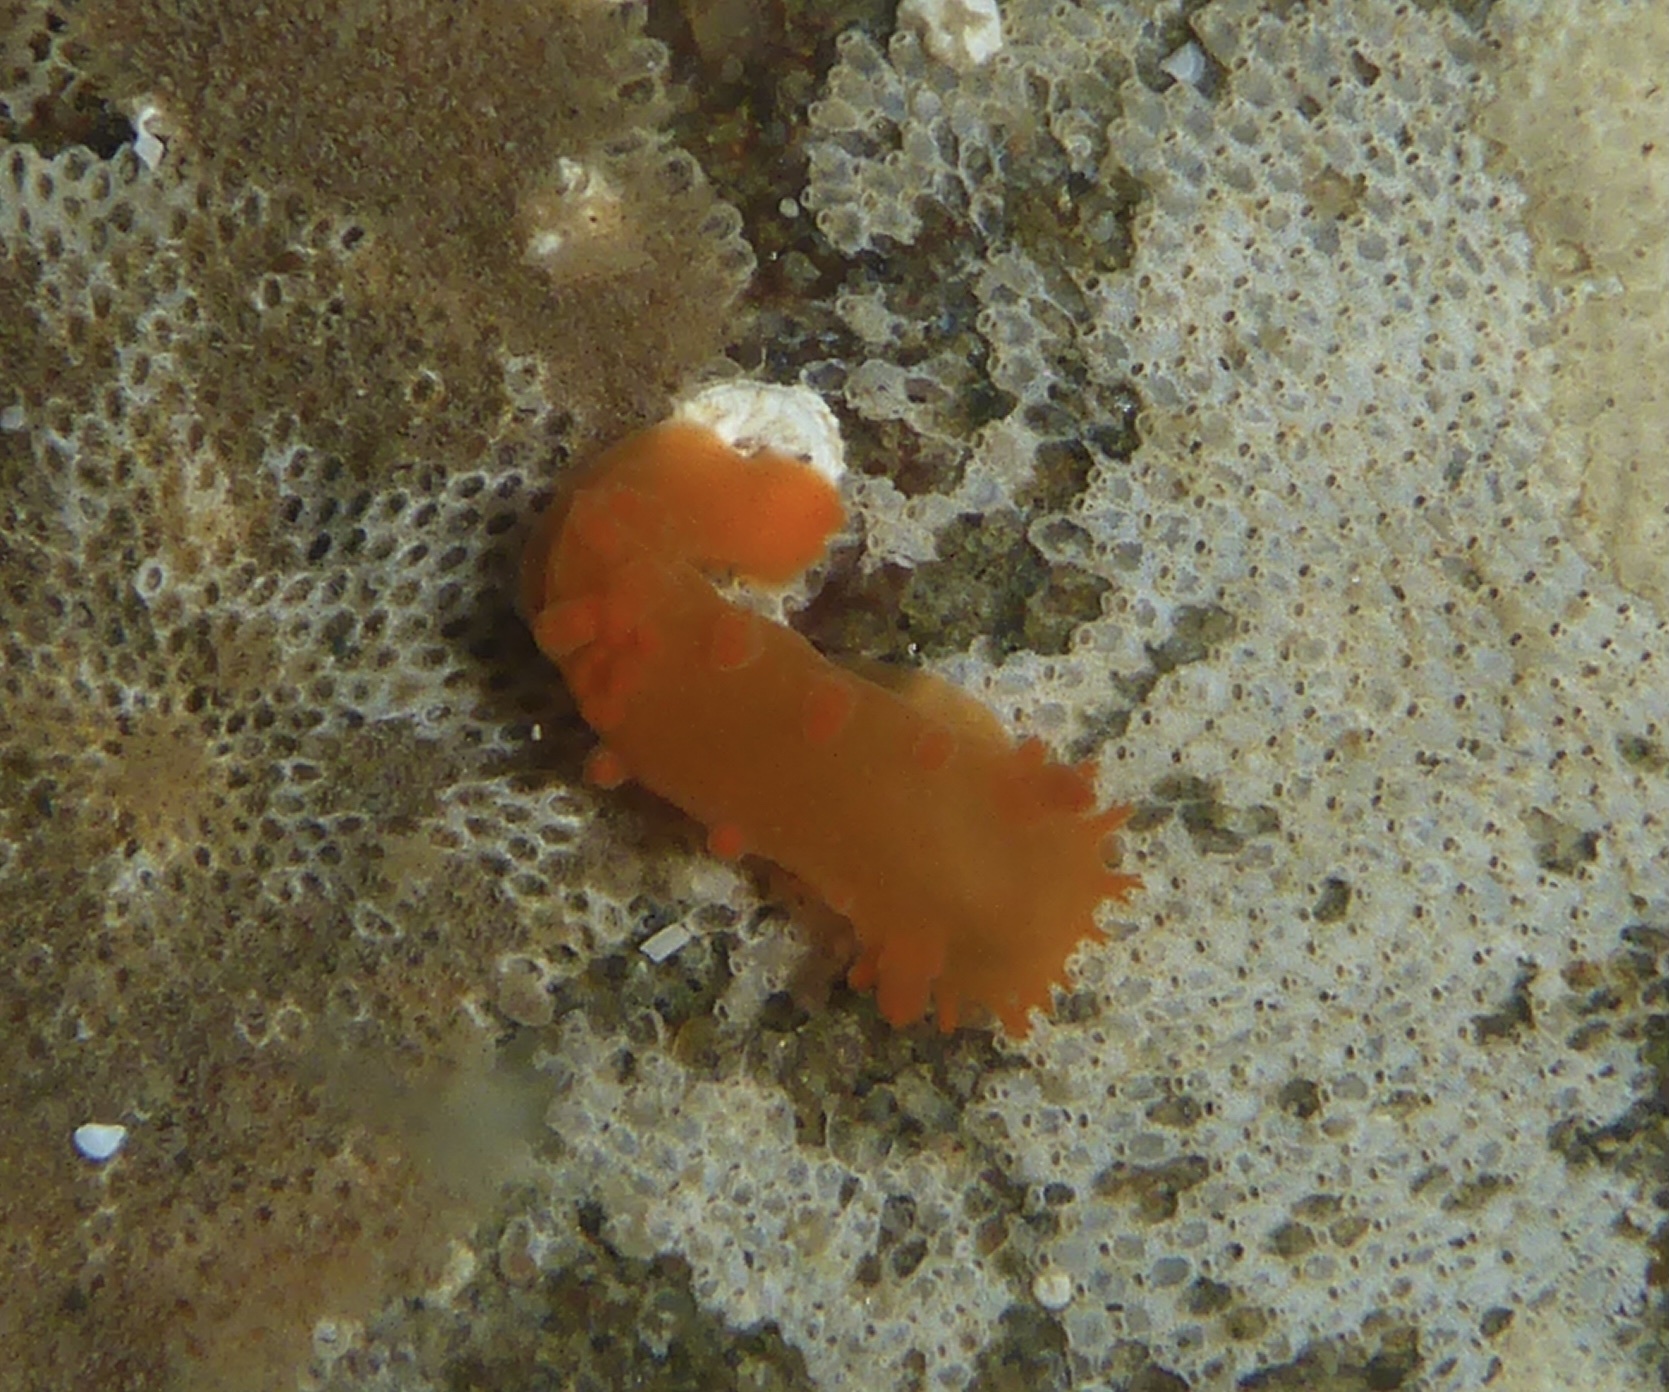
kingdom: Animalia
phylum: Mollusca
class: Gastropoda
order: Nudibranchia
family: Polyceridae
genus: Triopha
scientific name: Triopha maculata
